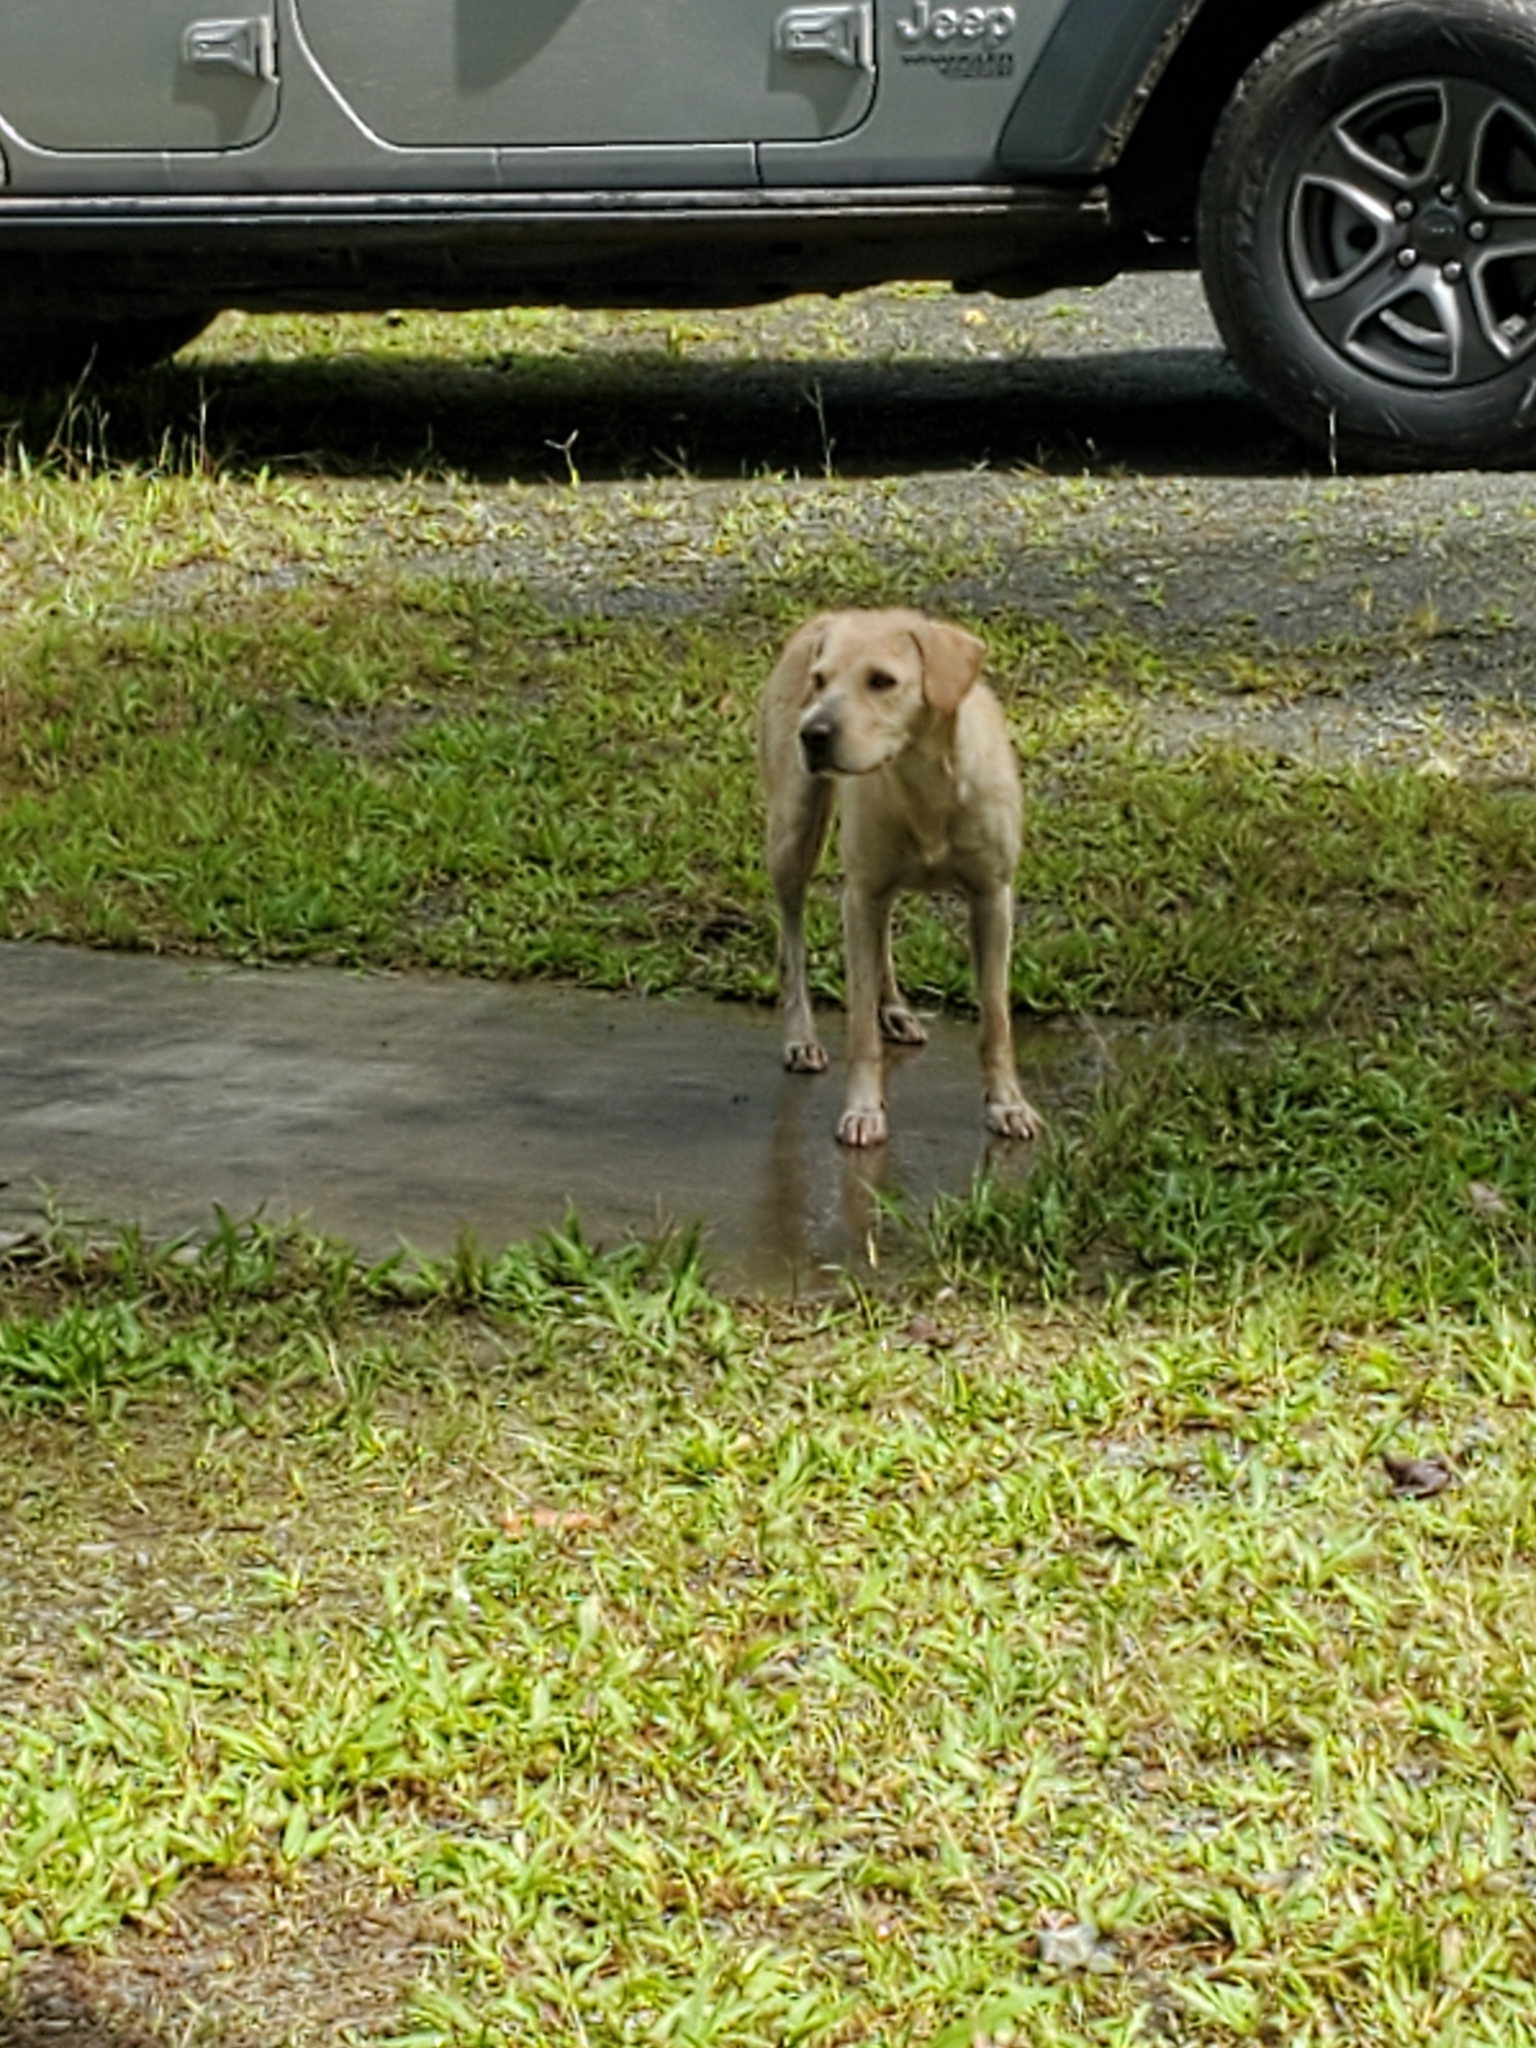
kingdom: Animalia
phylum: Chordata
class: Mammalia
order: Carnivora
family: Canidae
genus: Canis
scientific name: Canis lupus
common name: Gray wolf
